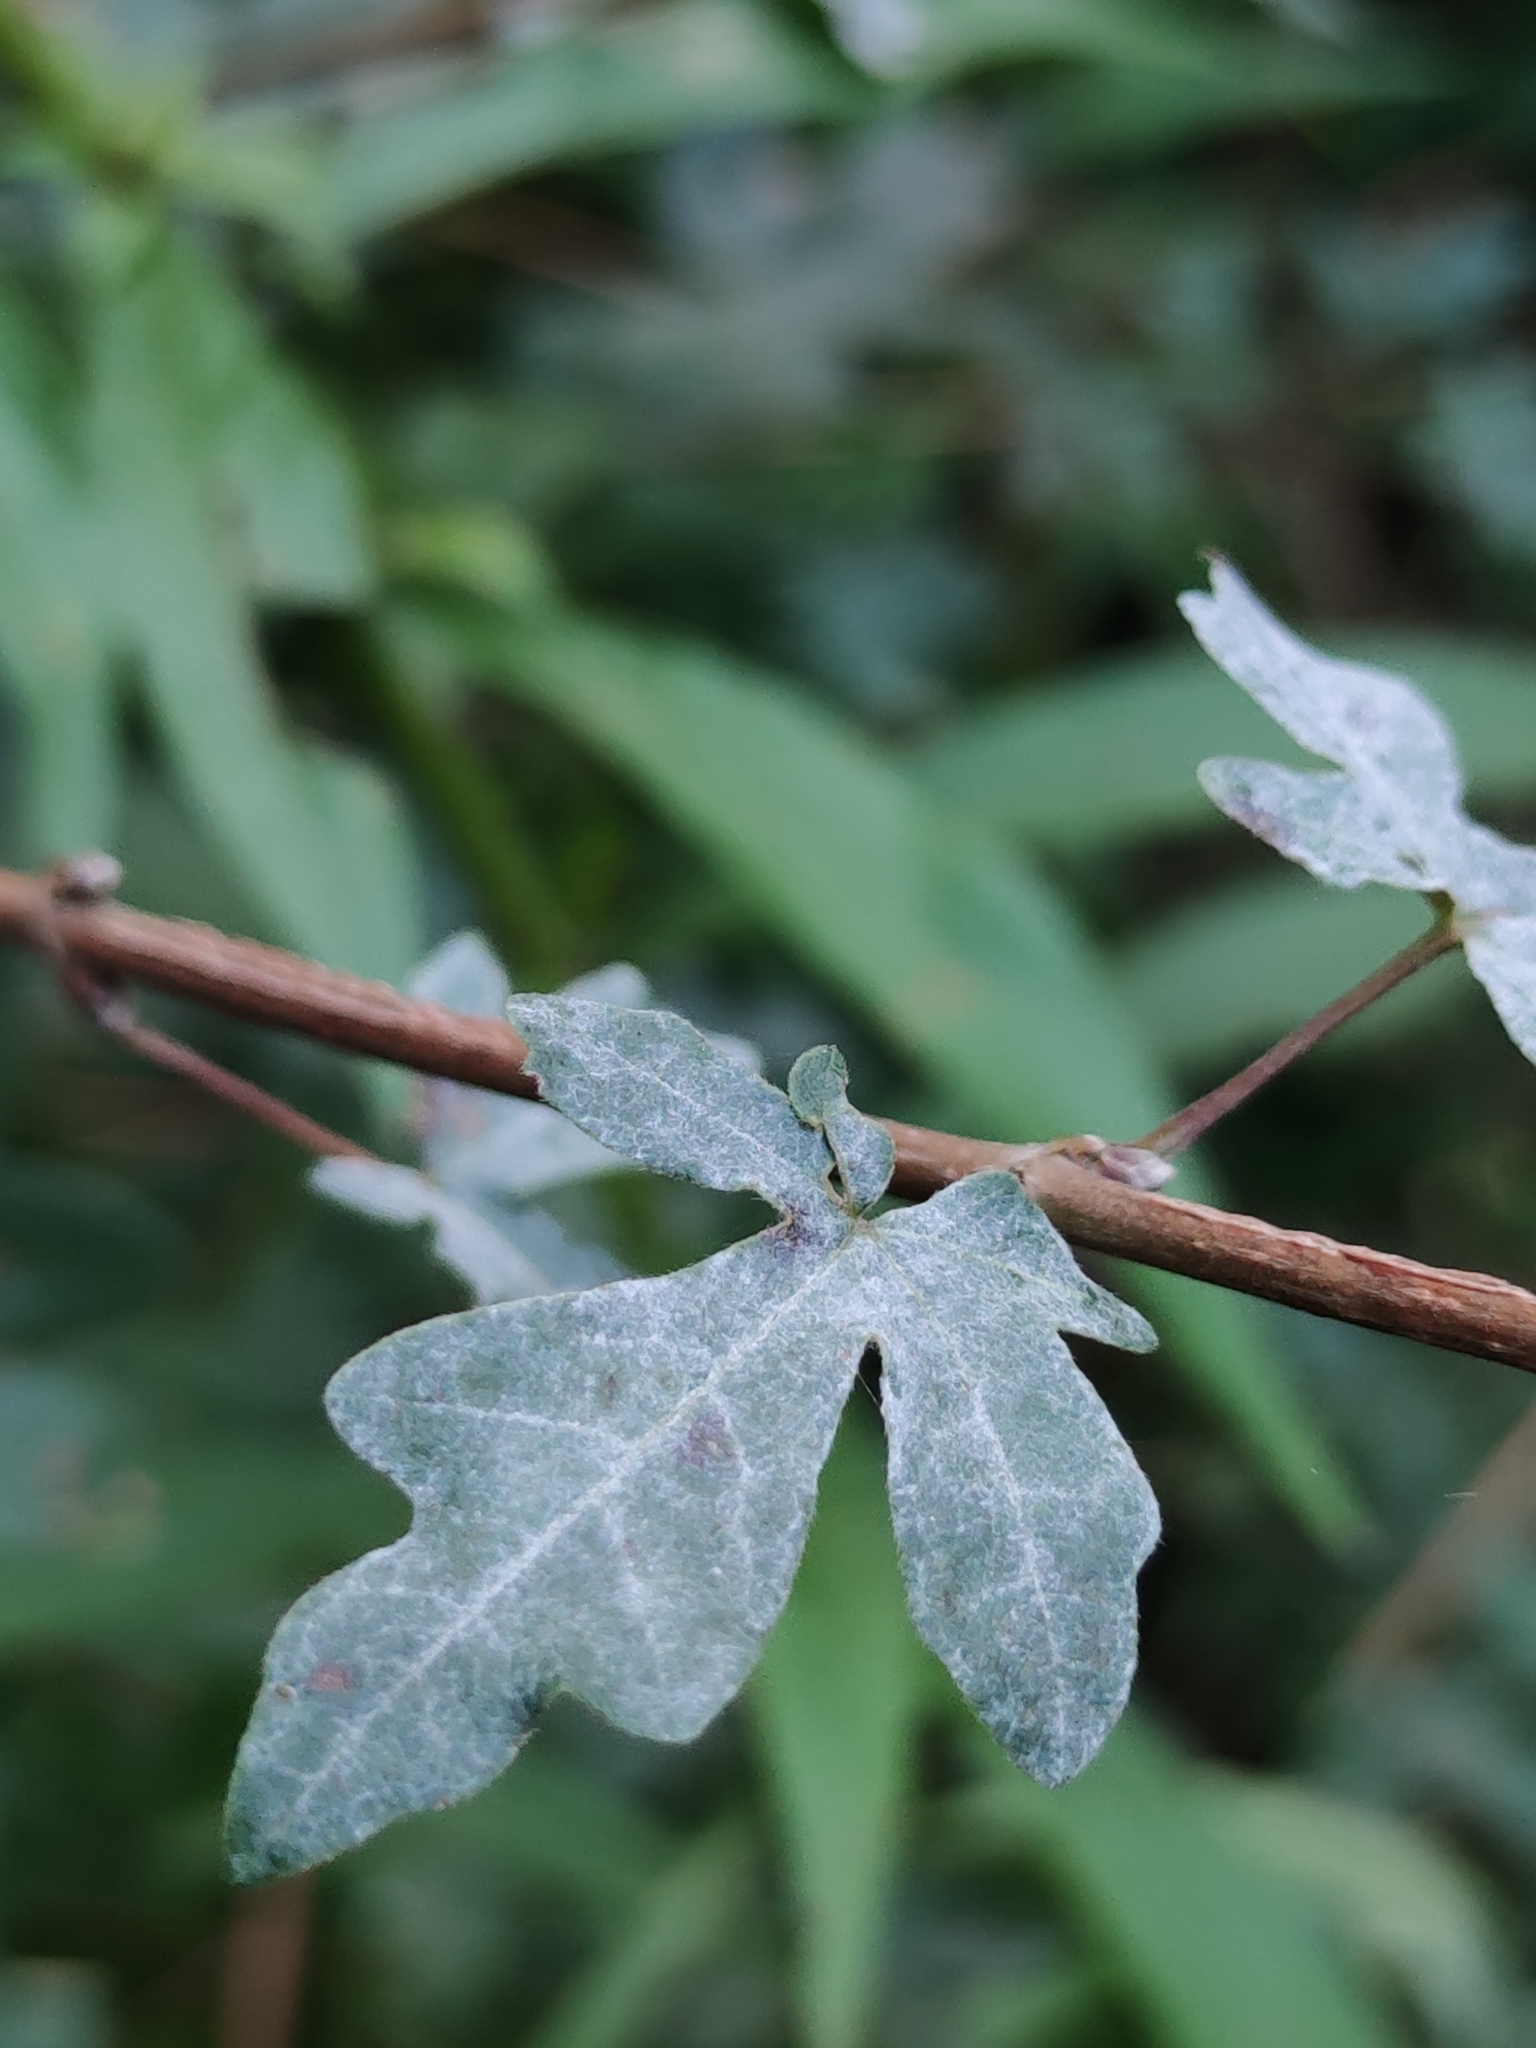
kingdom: Fungi
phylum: Ascomycota
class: Leotiomycetes
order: Helotiales
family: Erysiphaceae
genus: Sawadaea
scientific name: Sawadaea bicornis
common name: Maple mildew
